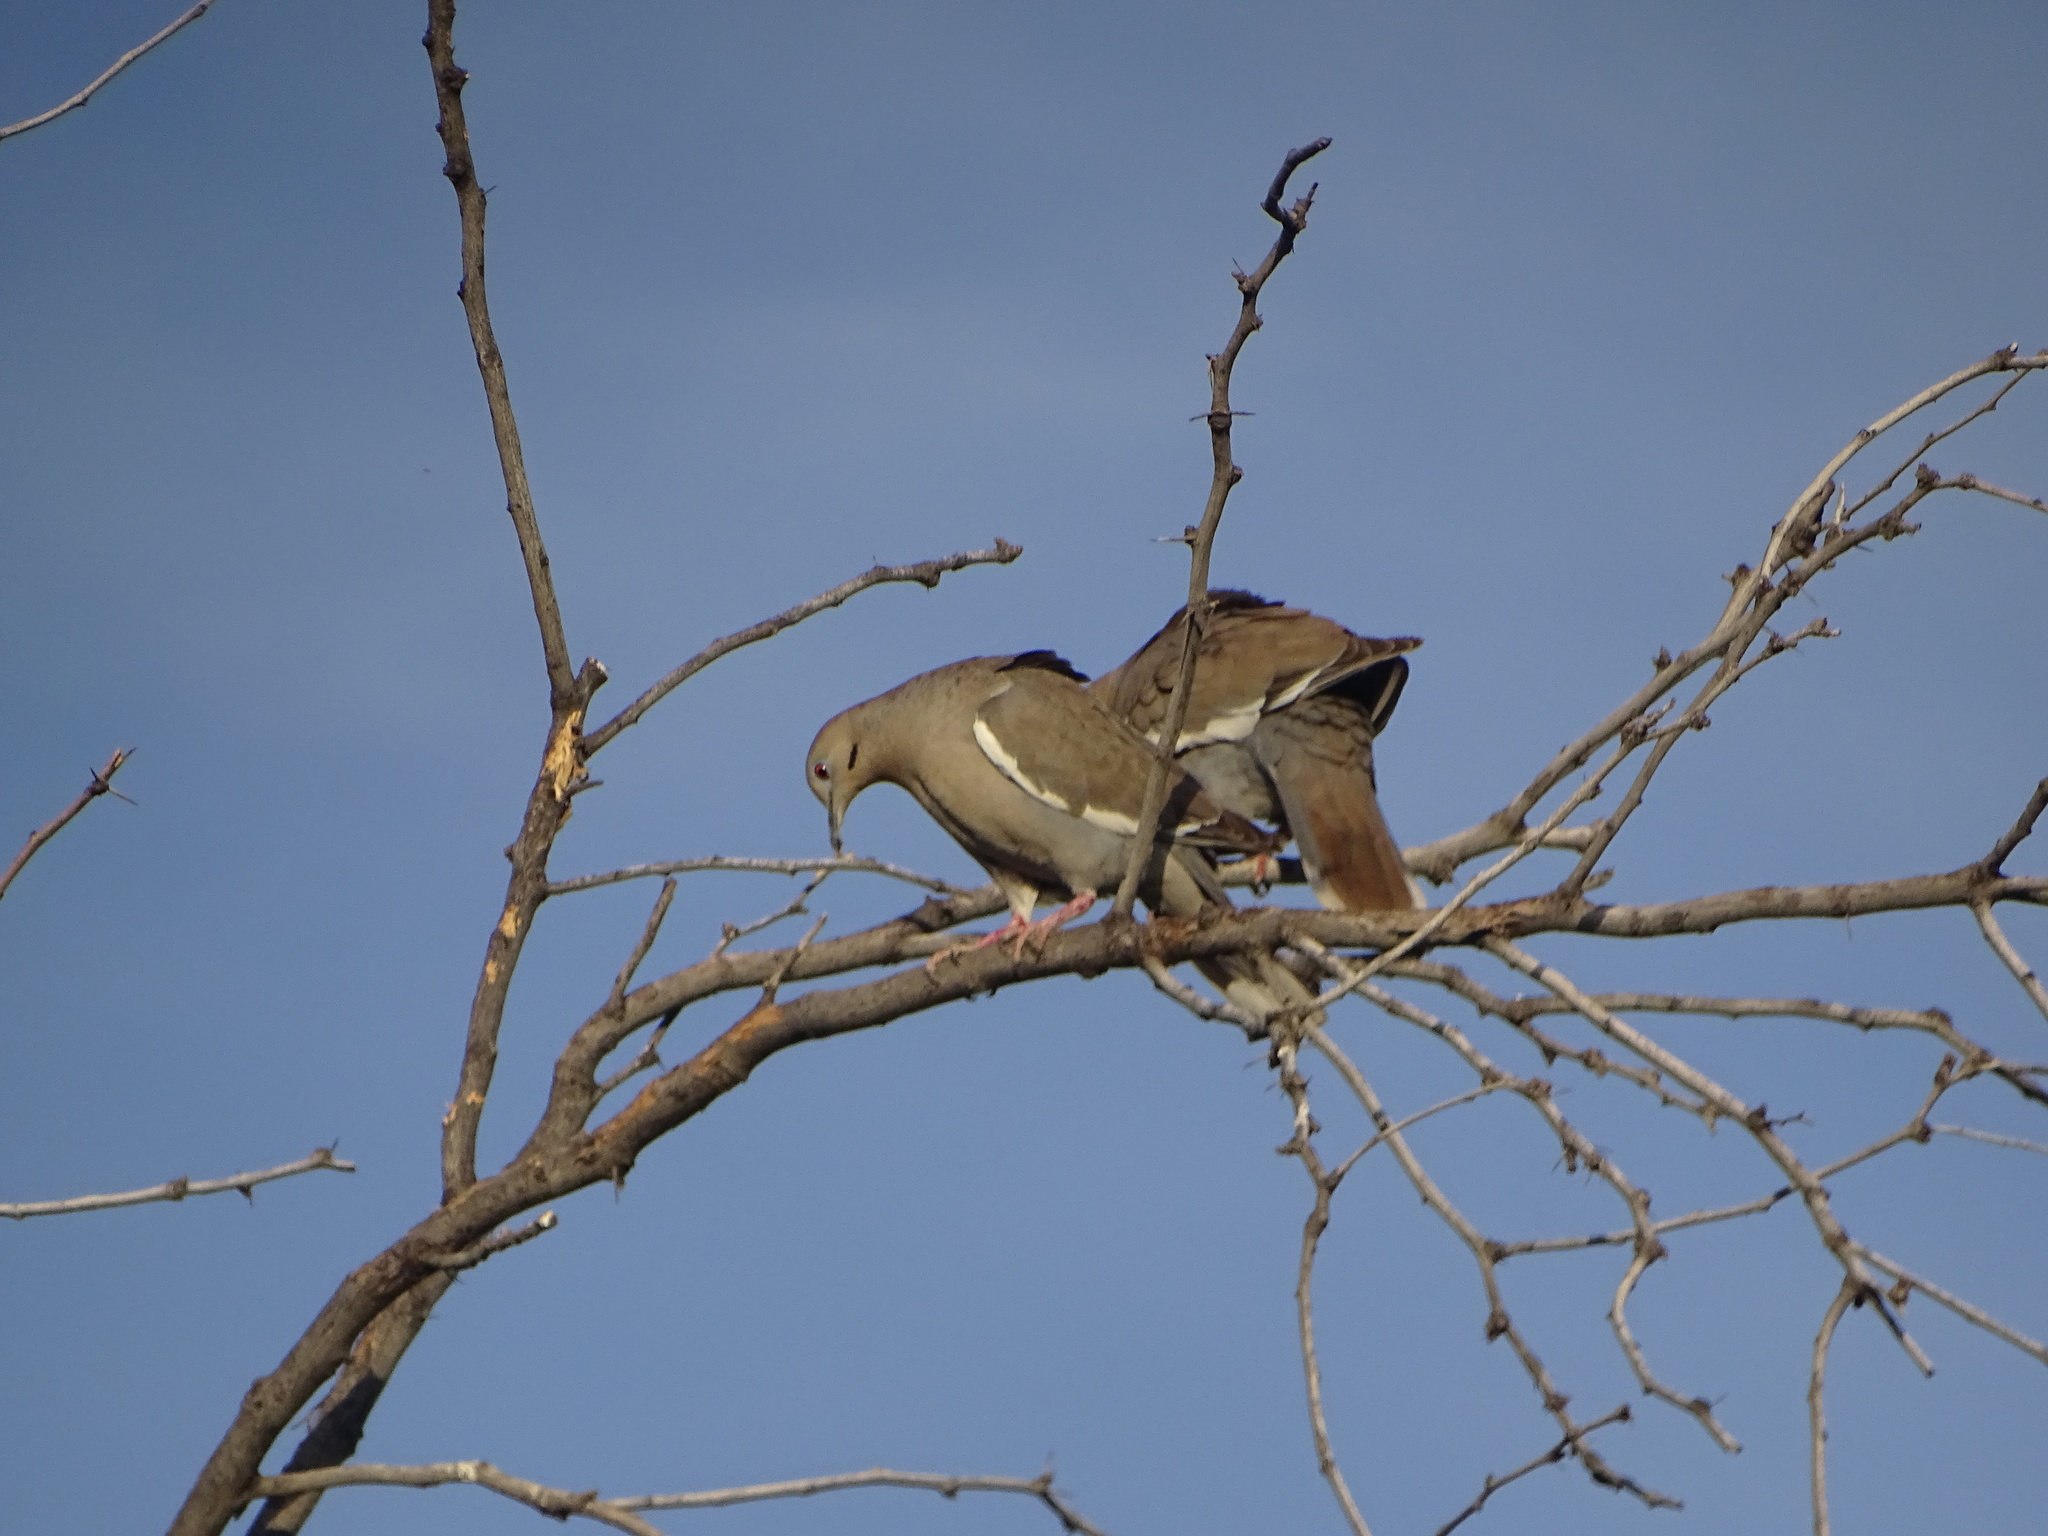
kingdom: Animalia
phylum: Chordata
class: Aves
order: Columbiformes
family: Columbidae
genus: Zenaida
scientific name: Zenaida asiatica
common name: White-winged dove
